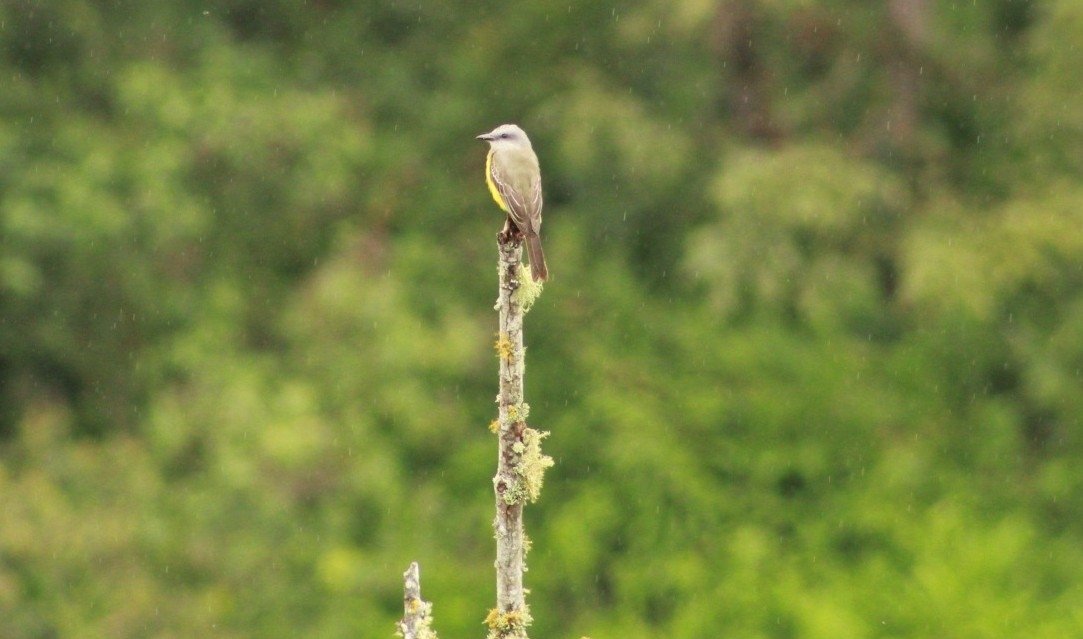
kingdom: Animalia
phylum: Chordata
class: Aves
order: Passeriformes
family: Tyrannidae
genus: Tyrannus
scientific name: Tyrannus melancholicus
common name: Tropical kingbird
